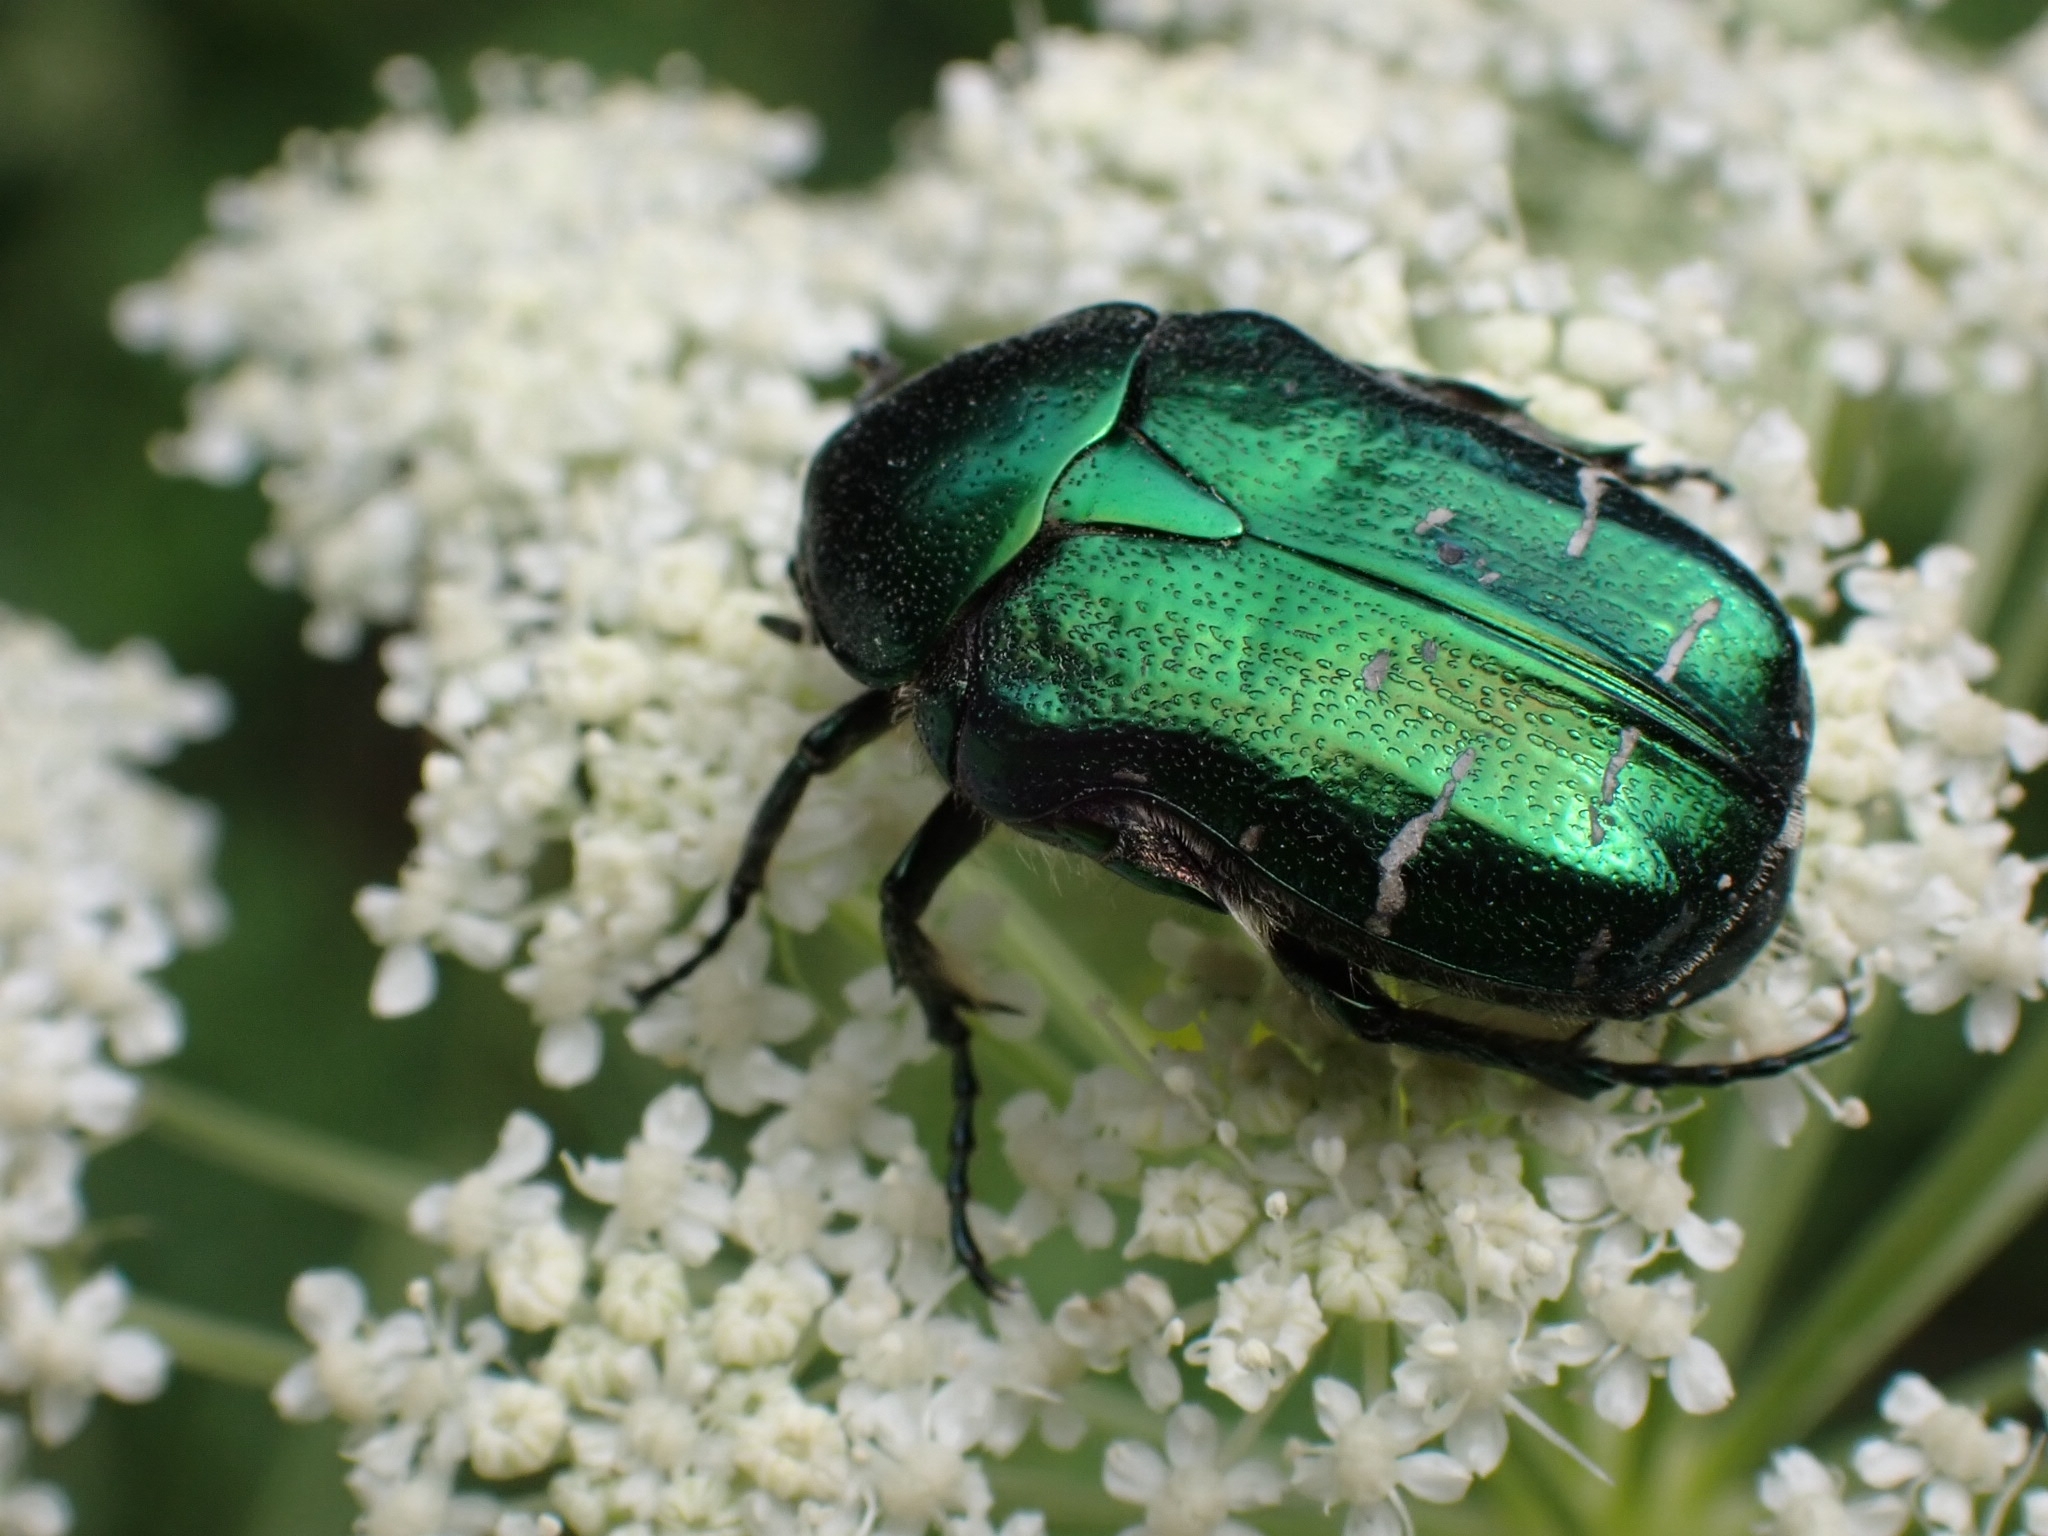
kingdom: Animalia
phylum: Arthropoda
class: Insecta
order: Coleoptera
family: Scarabaeidae
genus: Cetonia
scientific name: Cetonia aurata
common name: Rose chafer
